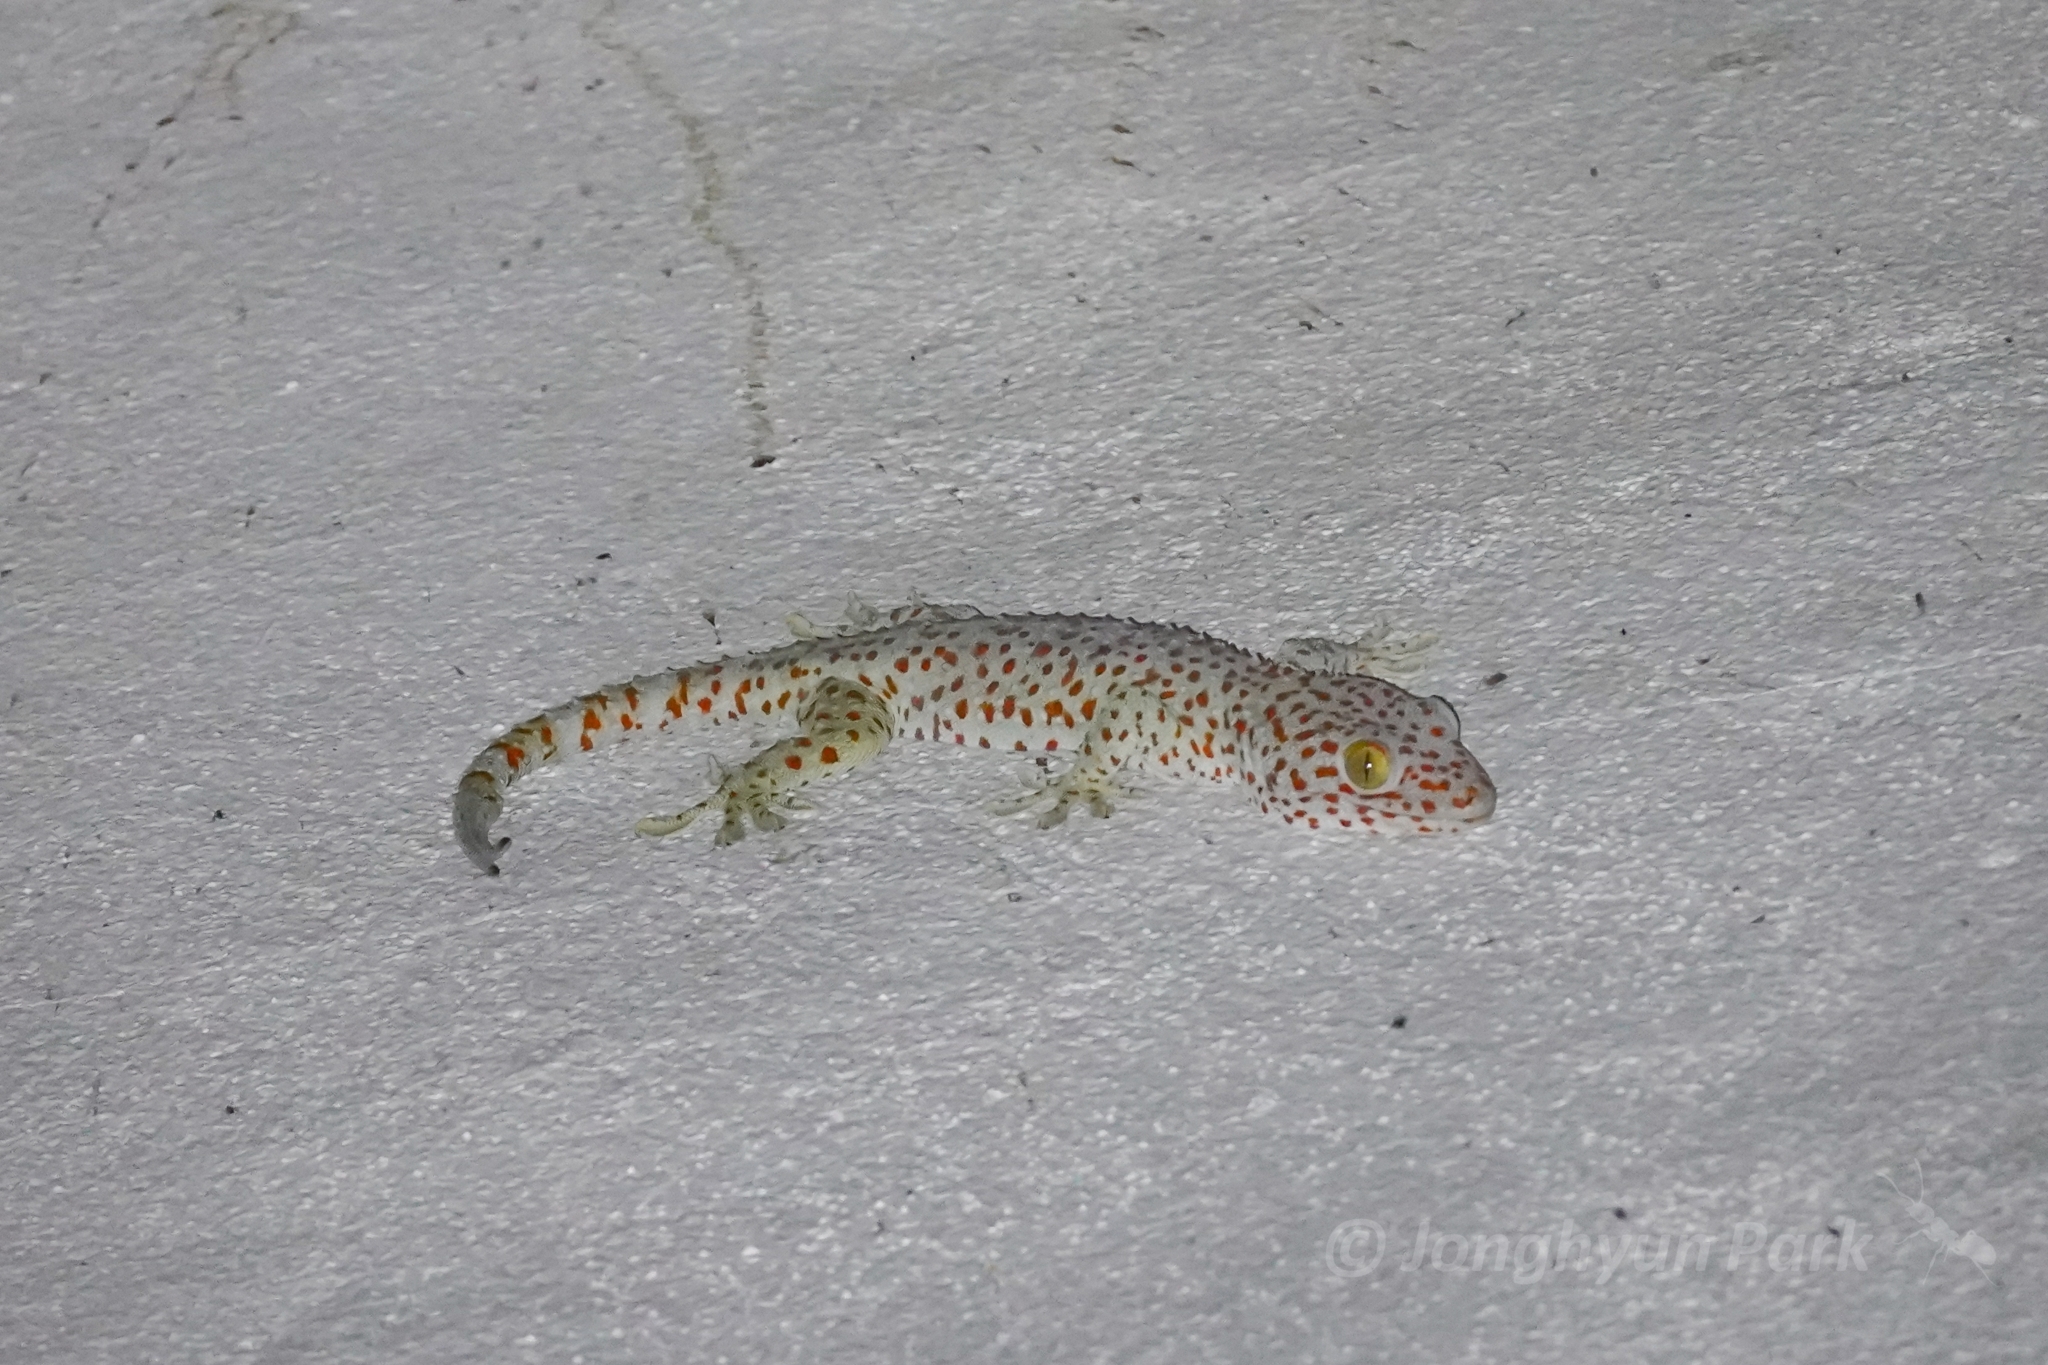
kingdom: Animalia
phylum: Chordata
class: Squamata
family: Gekkonidae
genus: Gekko
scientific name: Gekko gecko
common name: Tokay gecko
